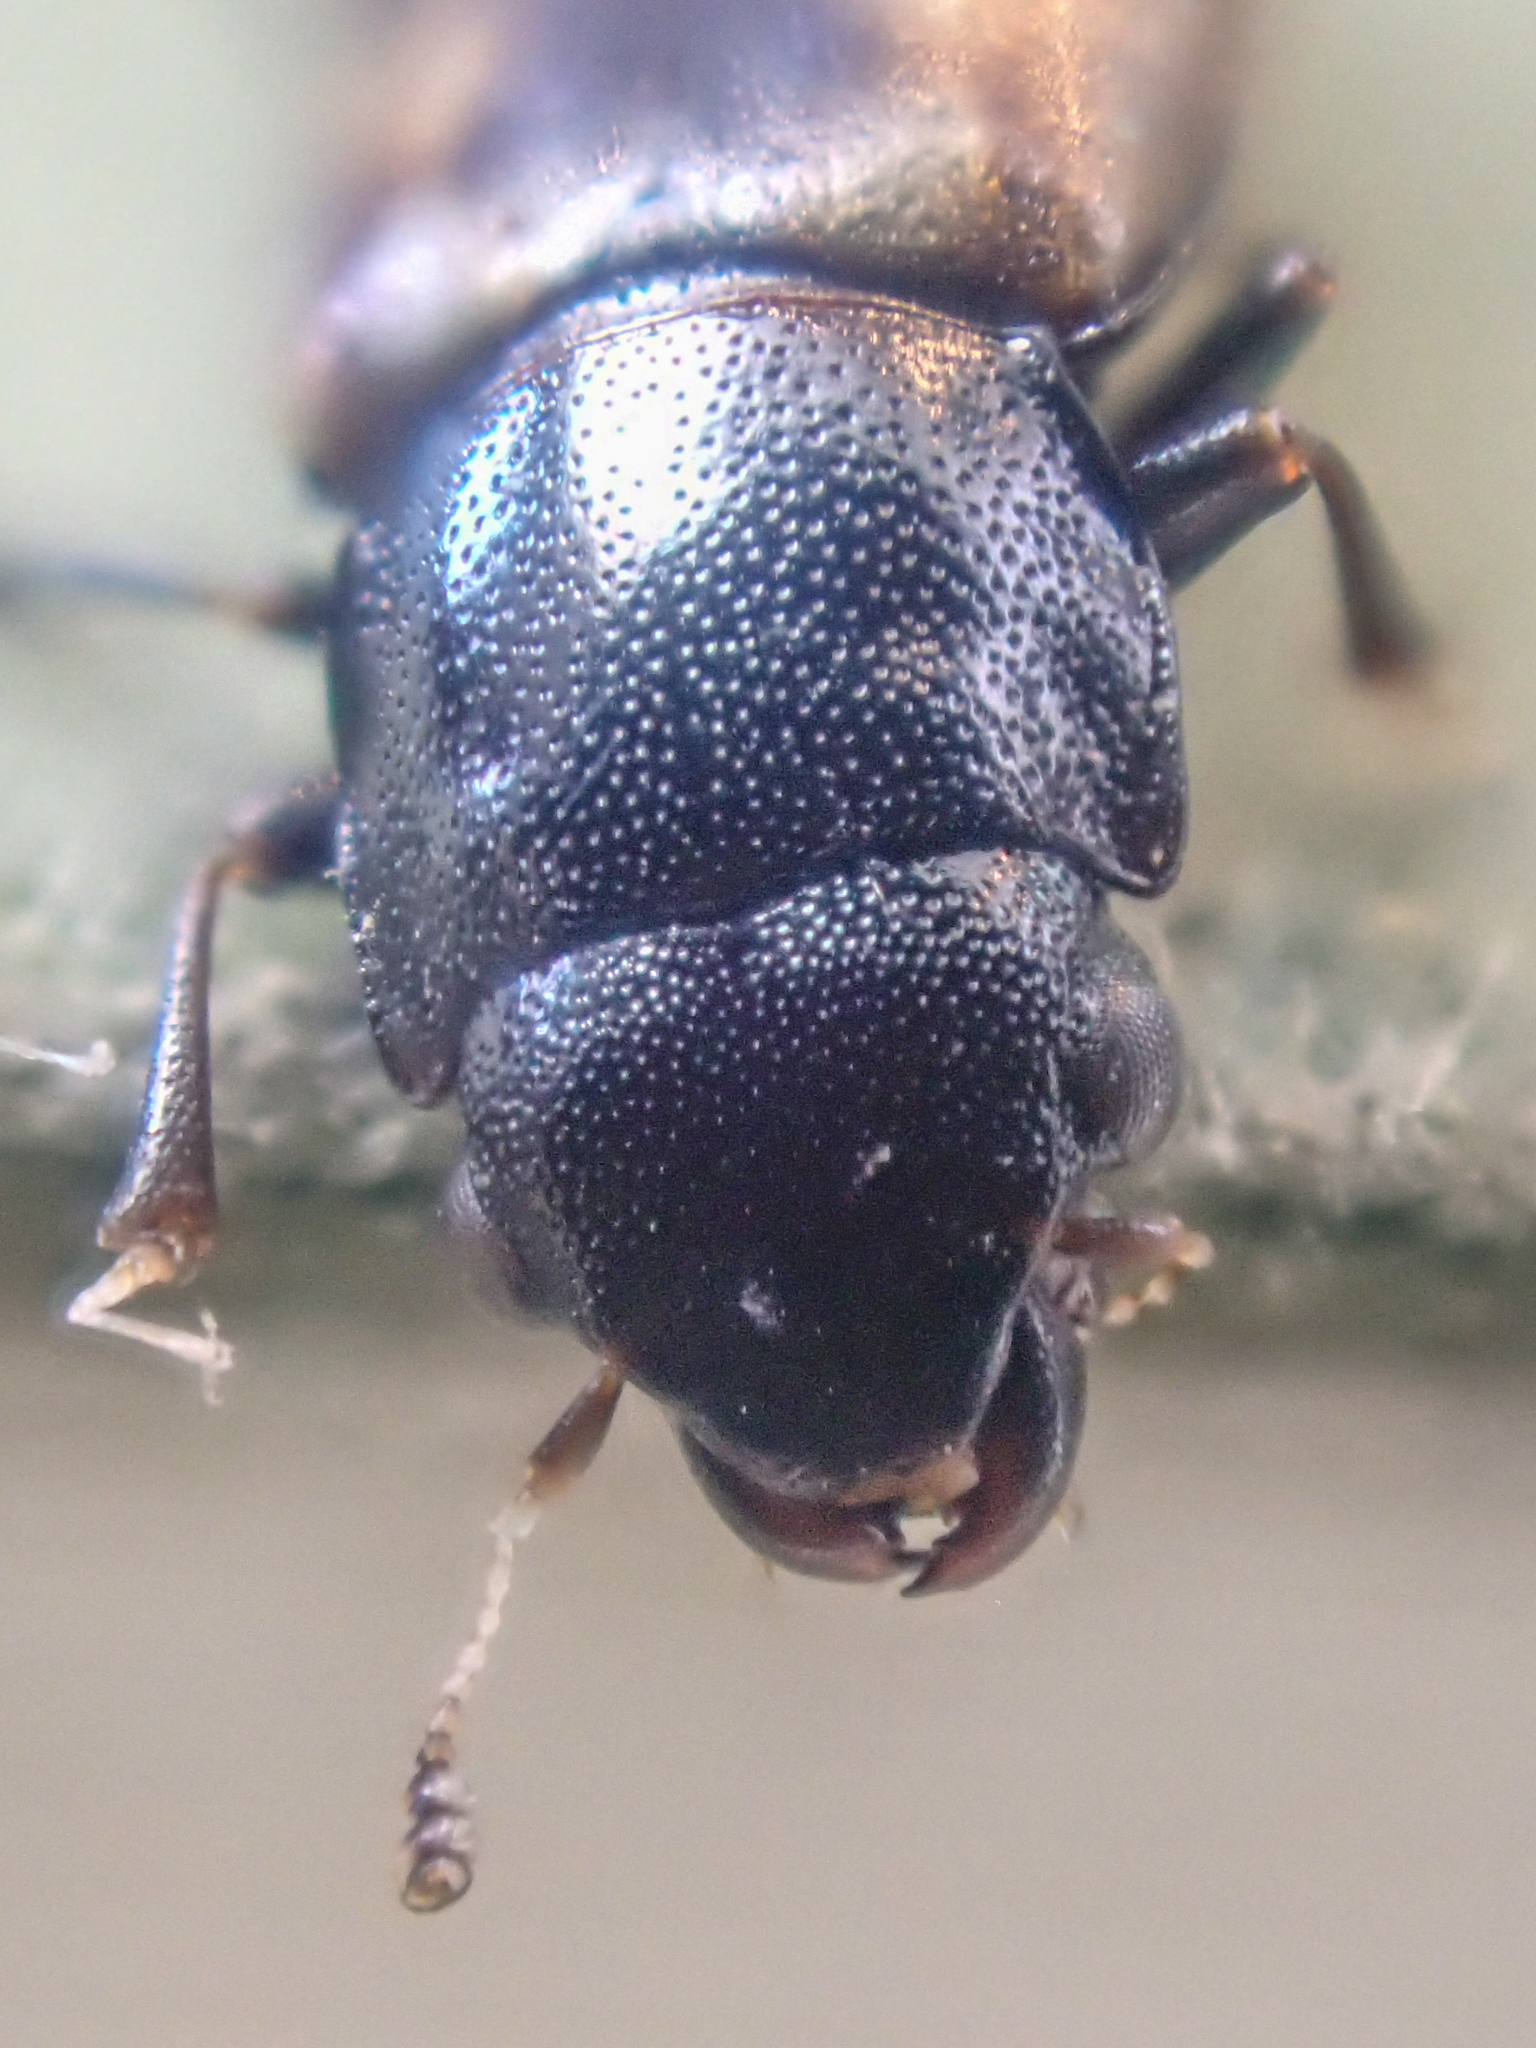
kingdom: Animalia
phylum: Arthropoda
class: Insecta
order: Coleoptera
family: Nitidulidae
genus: Glischrochilus
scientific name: Glischrochilus confluentus
